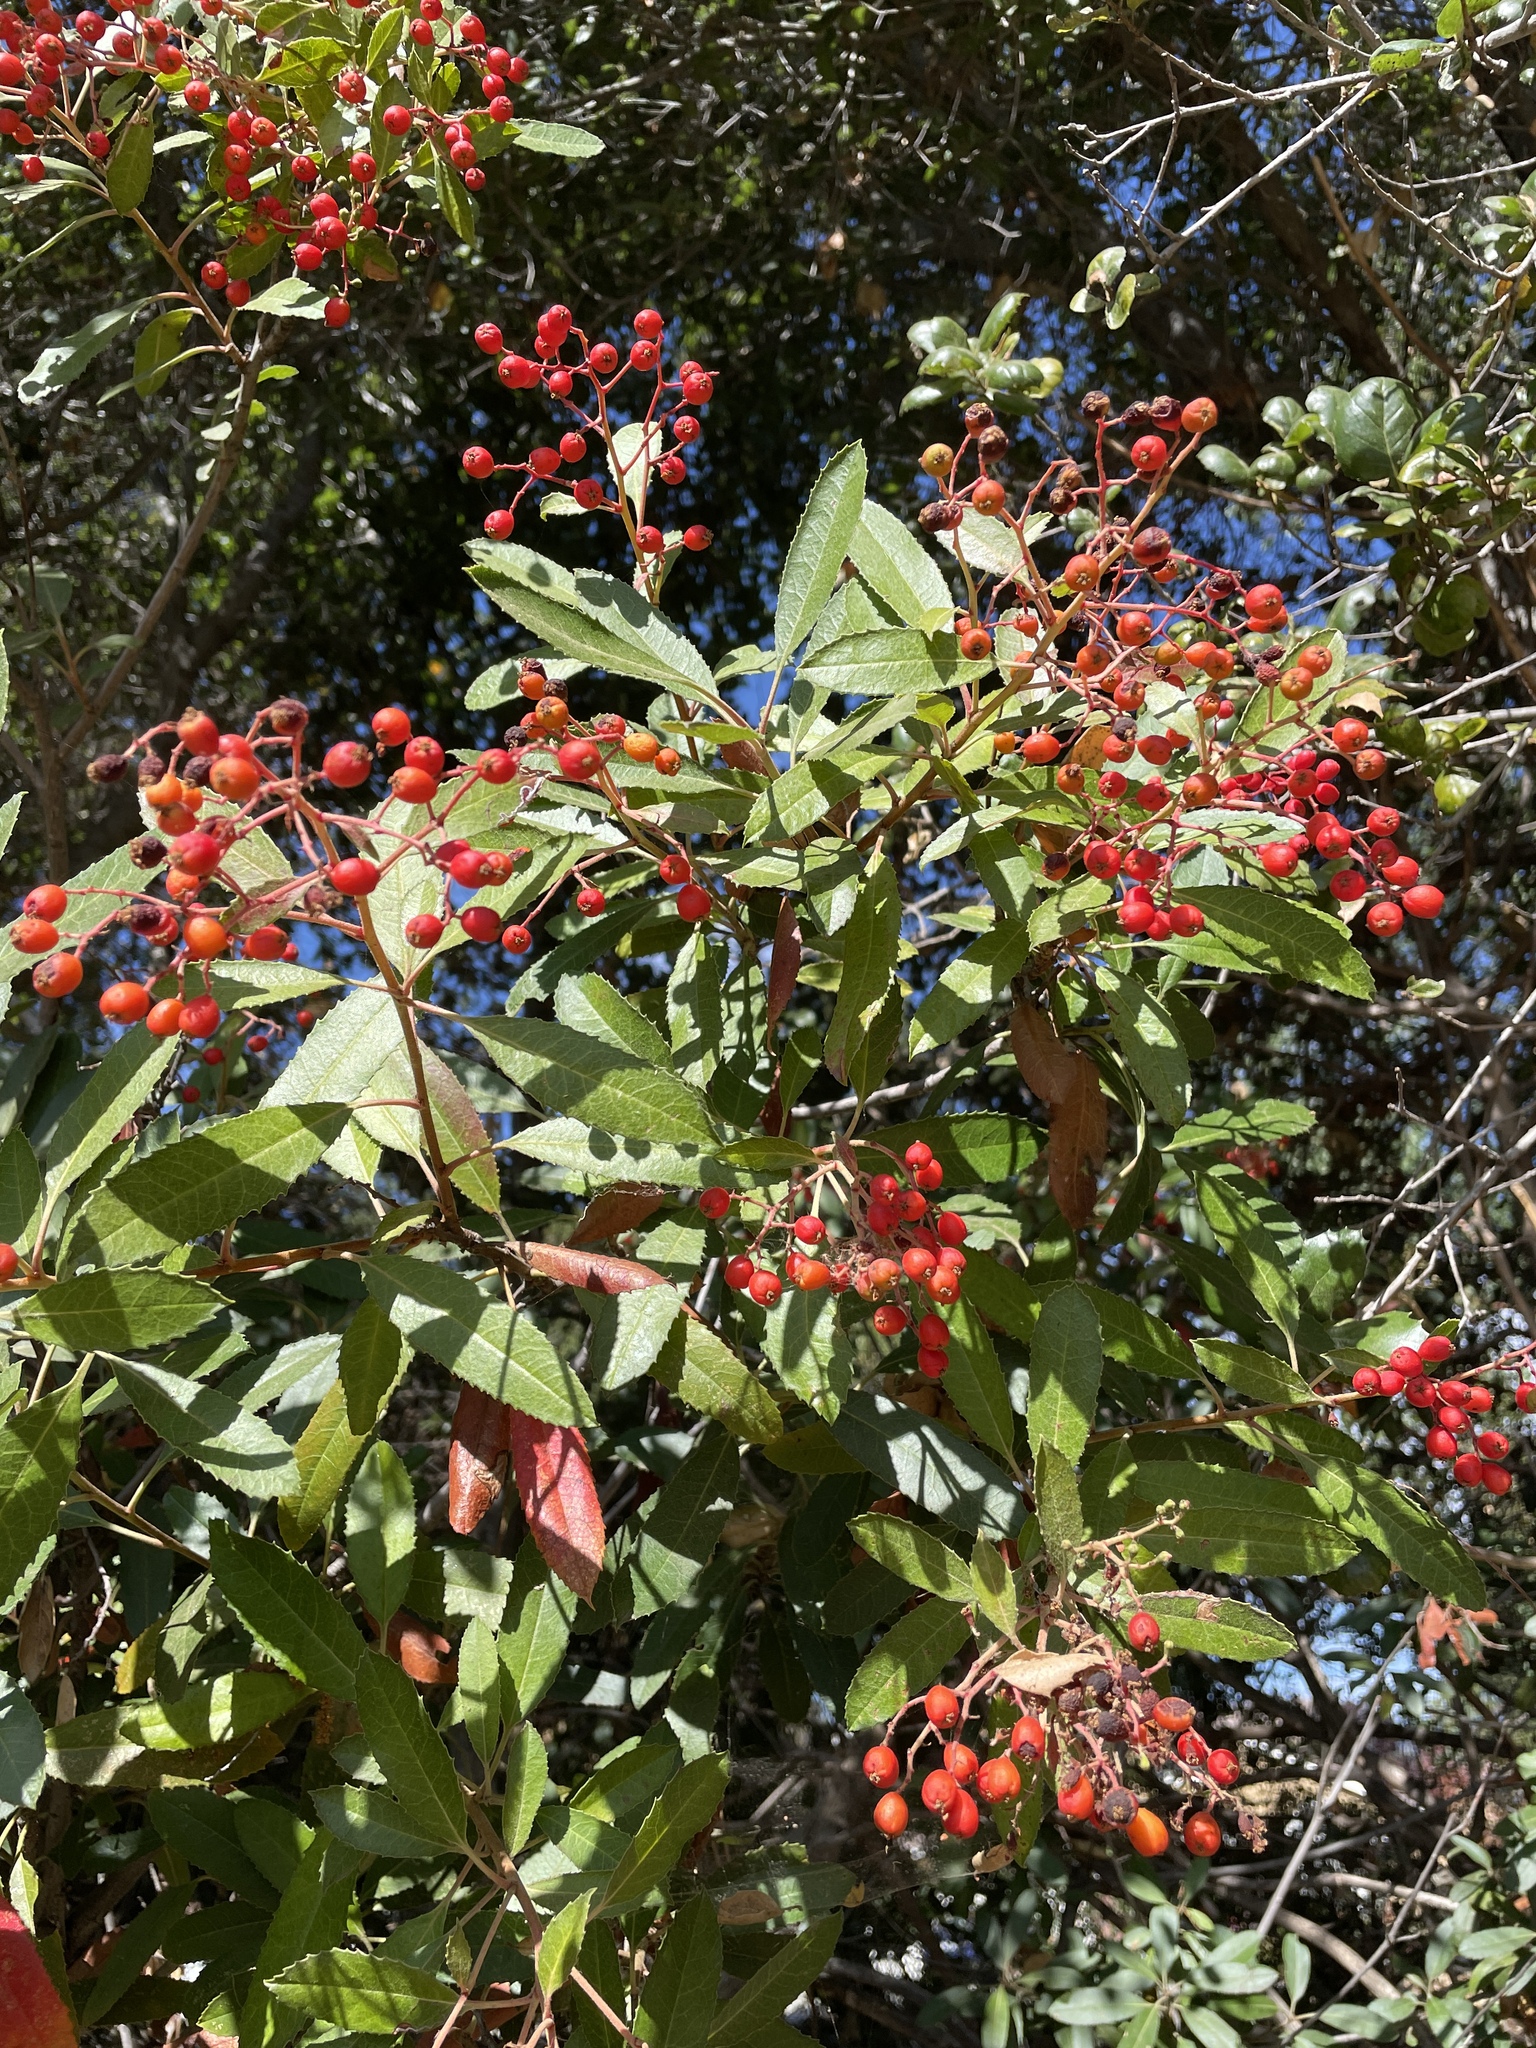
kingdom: Plantae
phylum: Tracheophyta
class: Magnoliopsida
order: Rosales
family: Rosaceae
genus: Heteromeles
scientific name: Heteromeles arbutifolia
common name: California-holly
